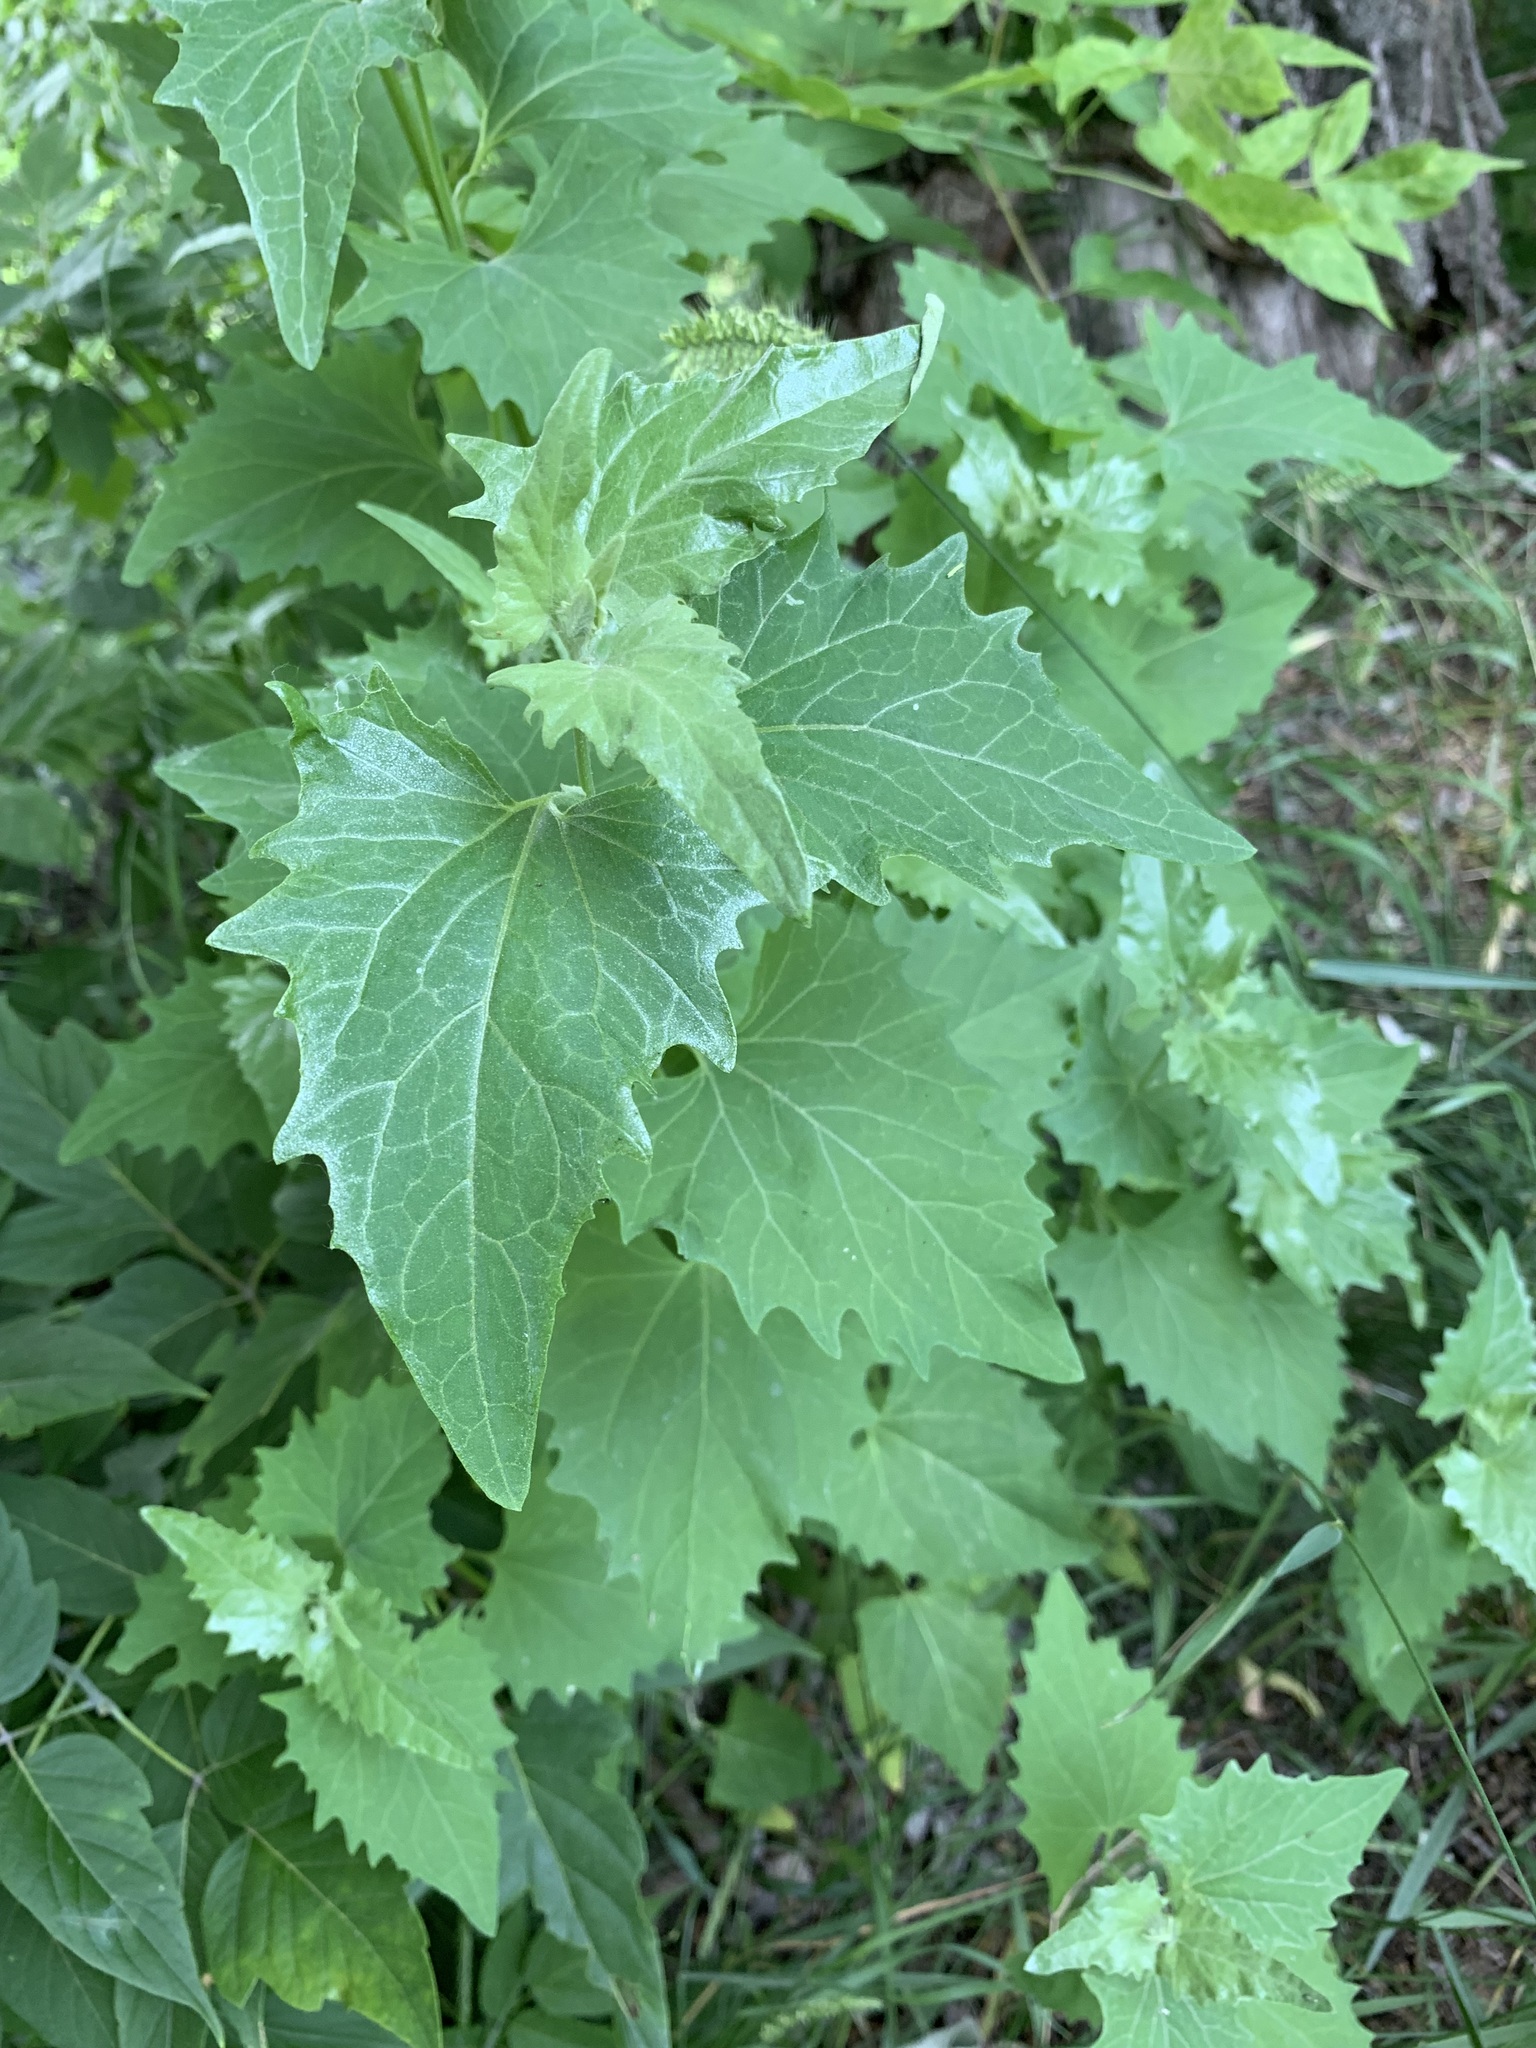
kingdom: Plantae
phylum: Tracheophyta
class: Magnoliopsida
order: Caryophyllales
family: Amaranthaceae
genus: Atriplex
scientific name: Atriplex sagittata
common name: Purple orache
